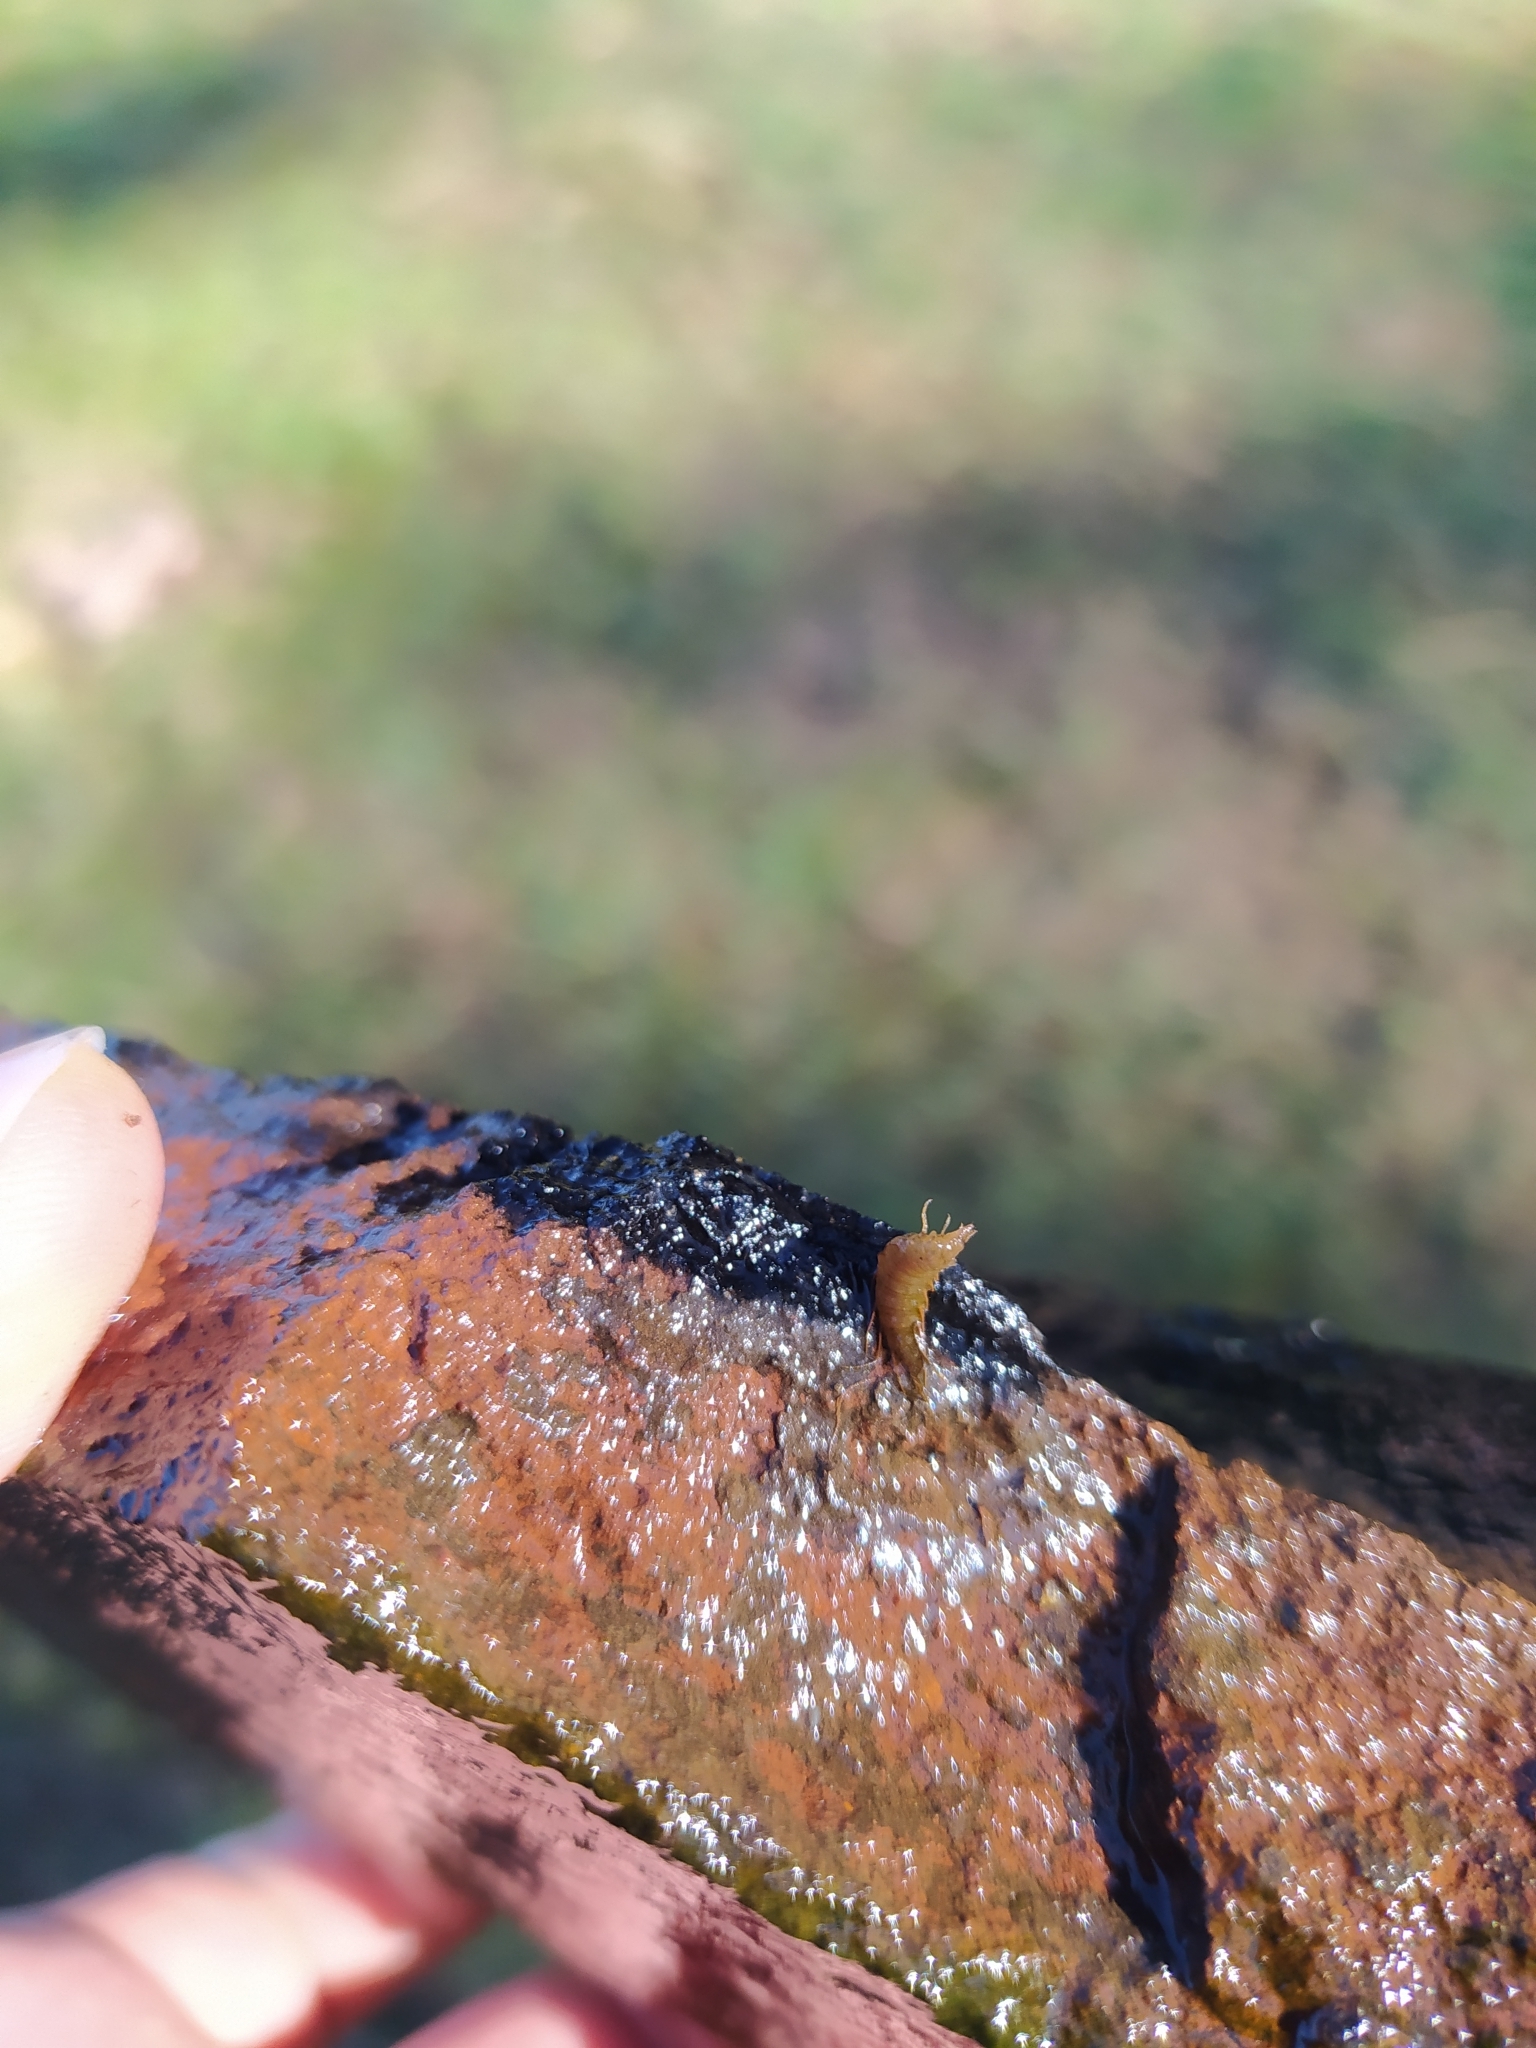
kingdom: Animalia
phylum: Arthropoda
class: Insecta
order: Coleoptera
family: Hydrophilidae
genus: Berosus
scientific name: Berosus
